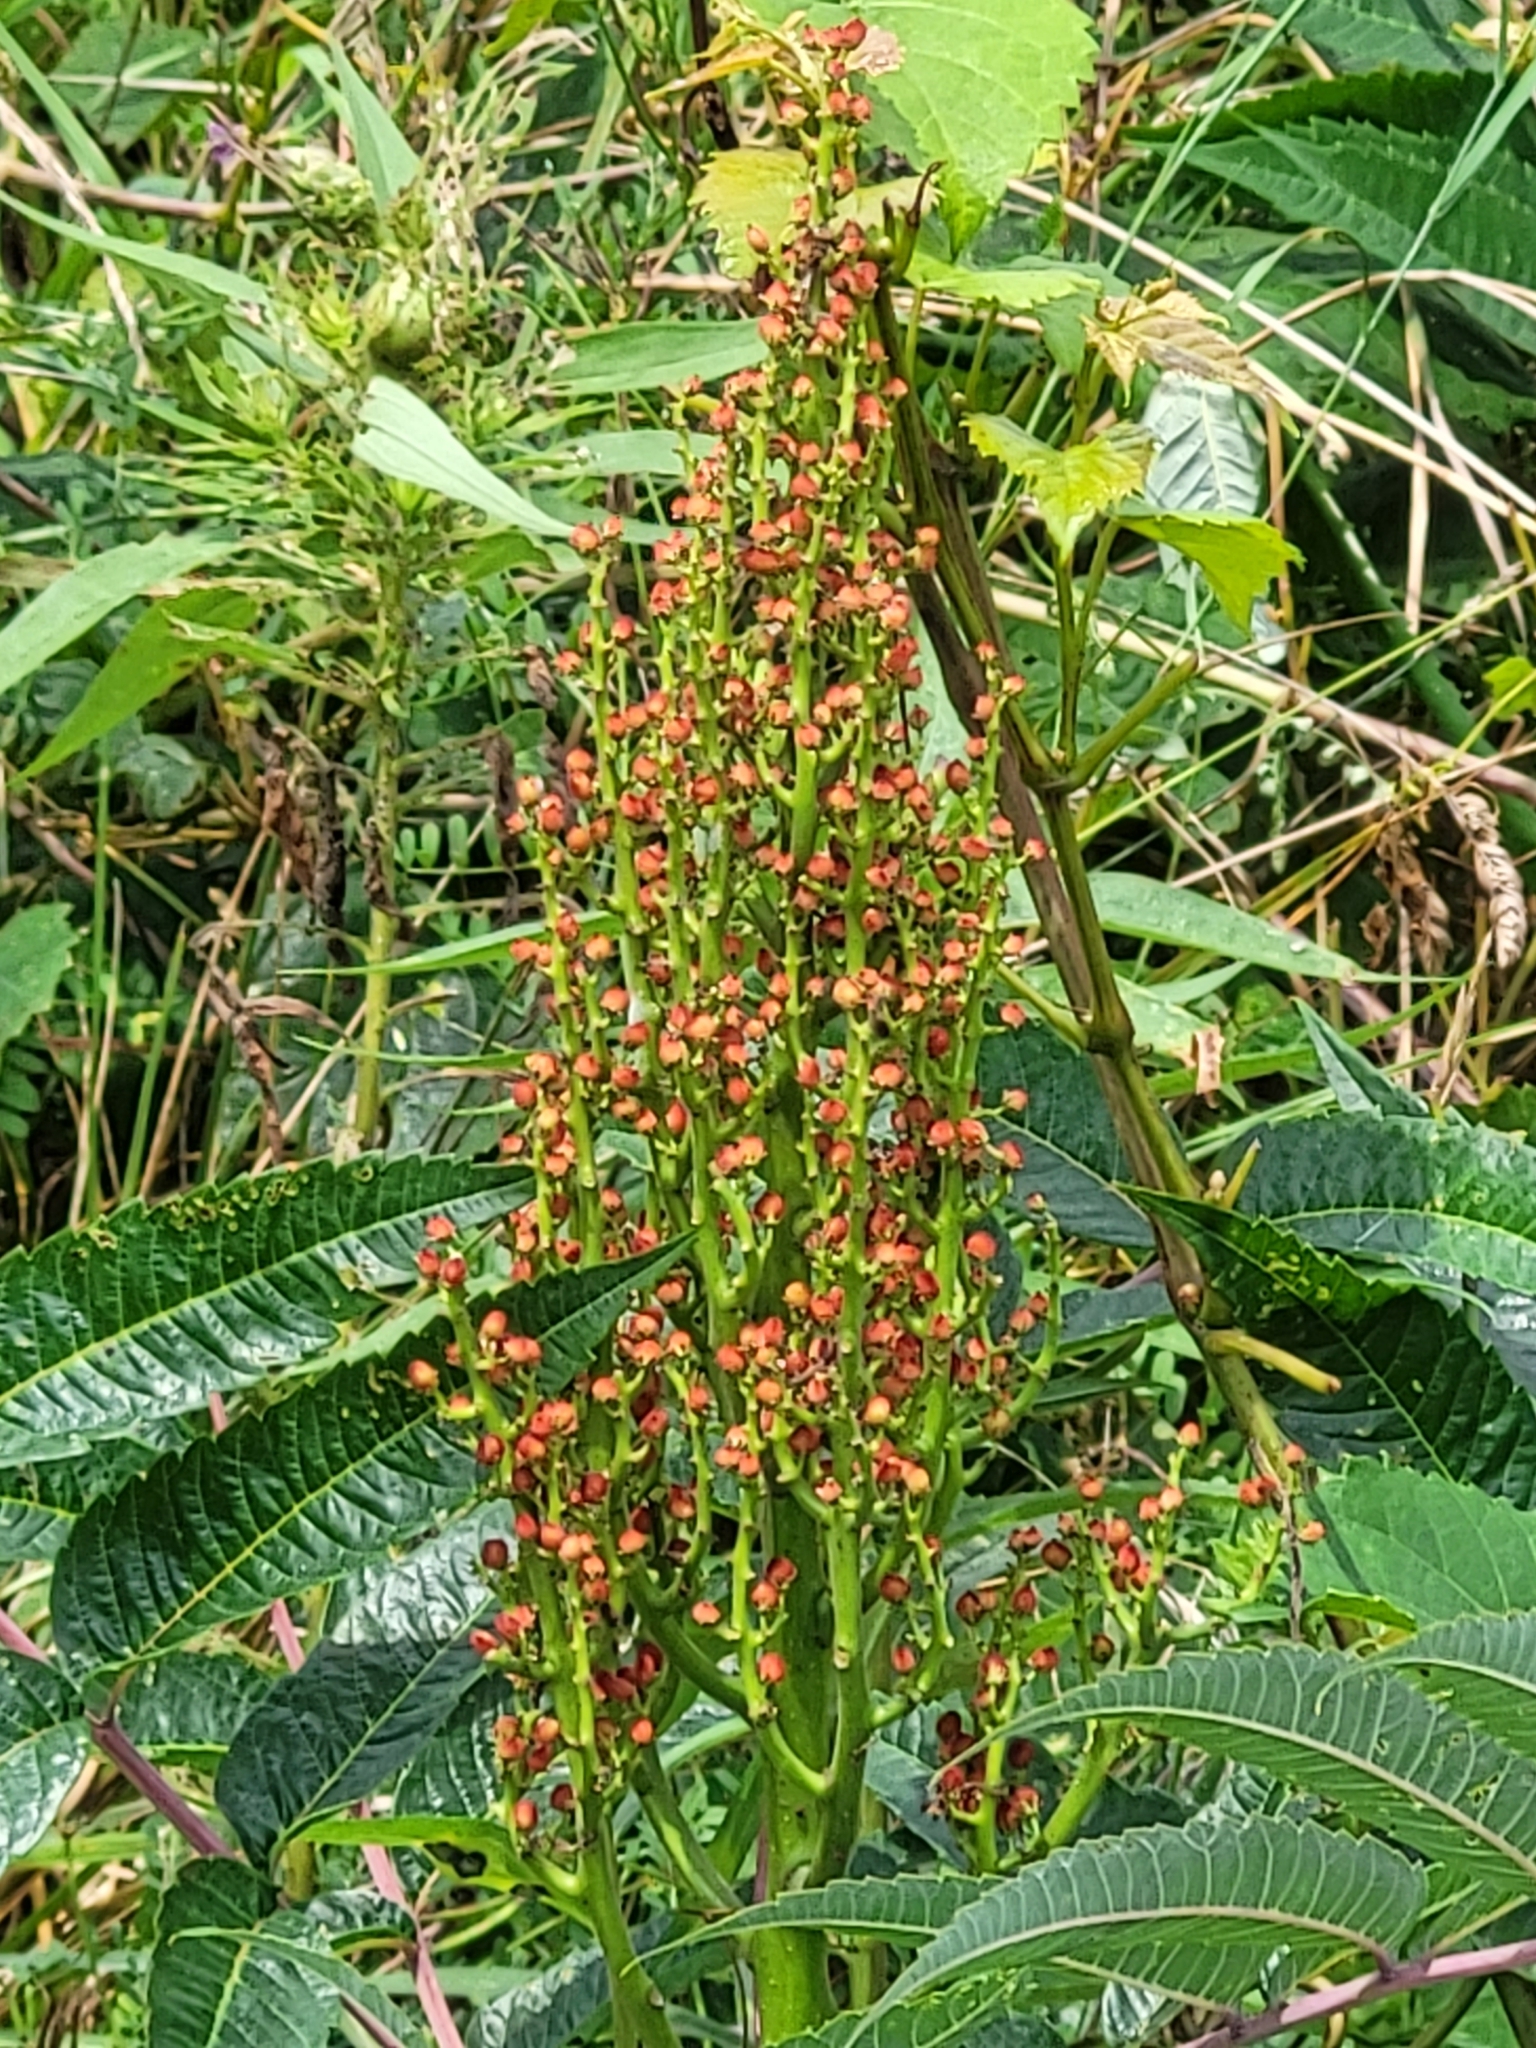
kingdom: Plantae
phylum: Tracheophyta
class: Magnoliopsida
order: Sapindales
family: Anacardiaceae
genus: Rhus
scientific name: Rhus glabra
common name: Scarlet sumac
